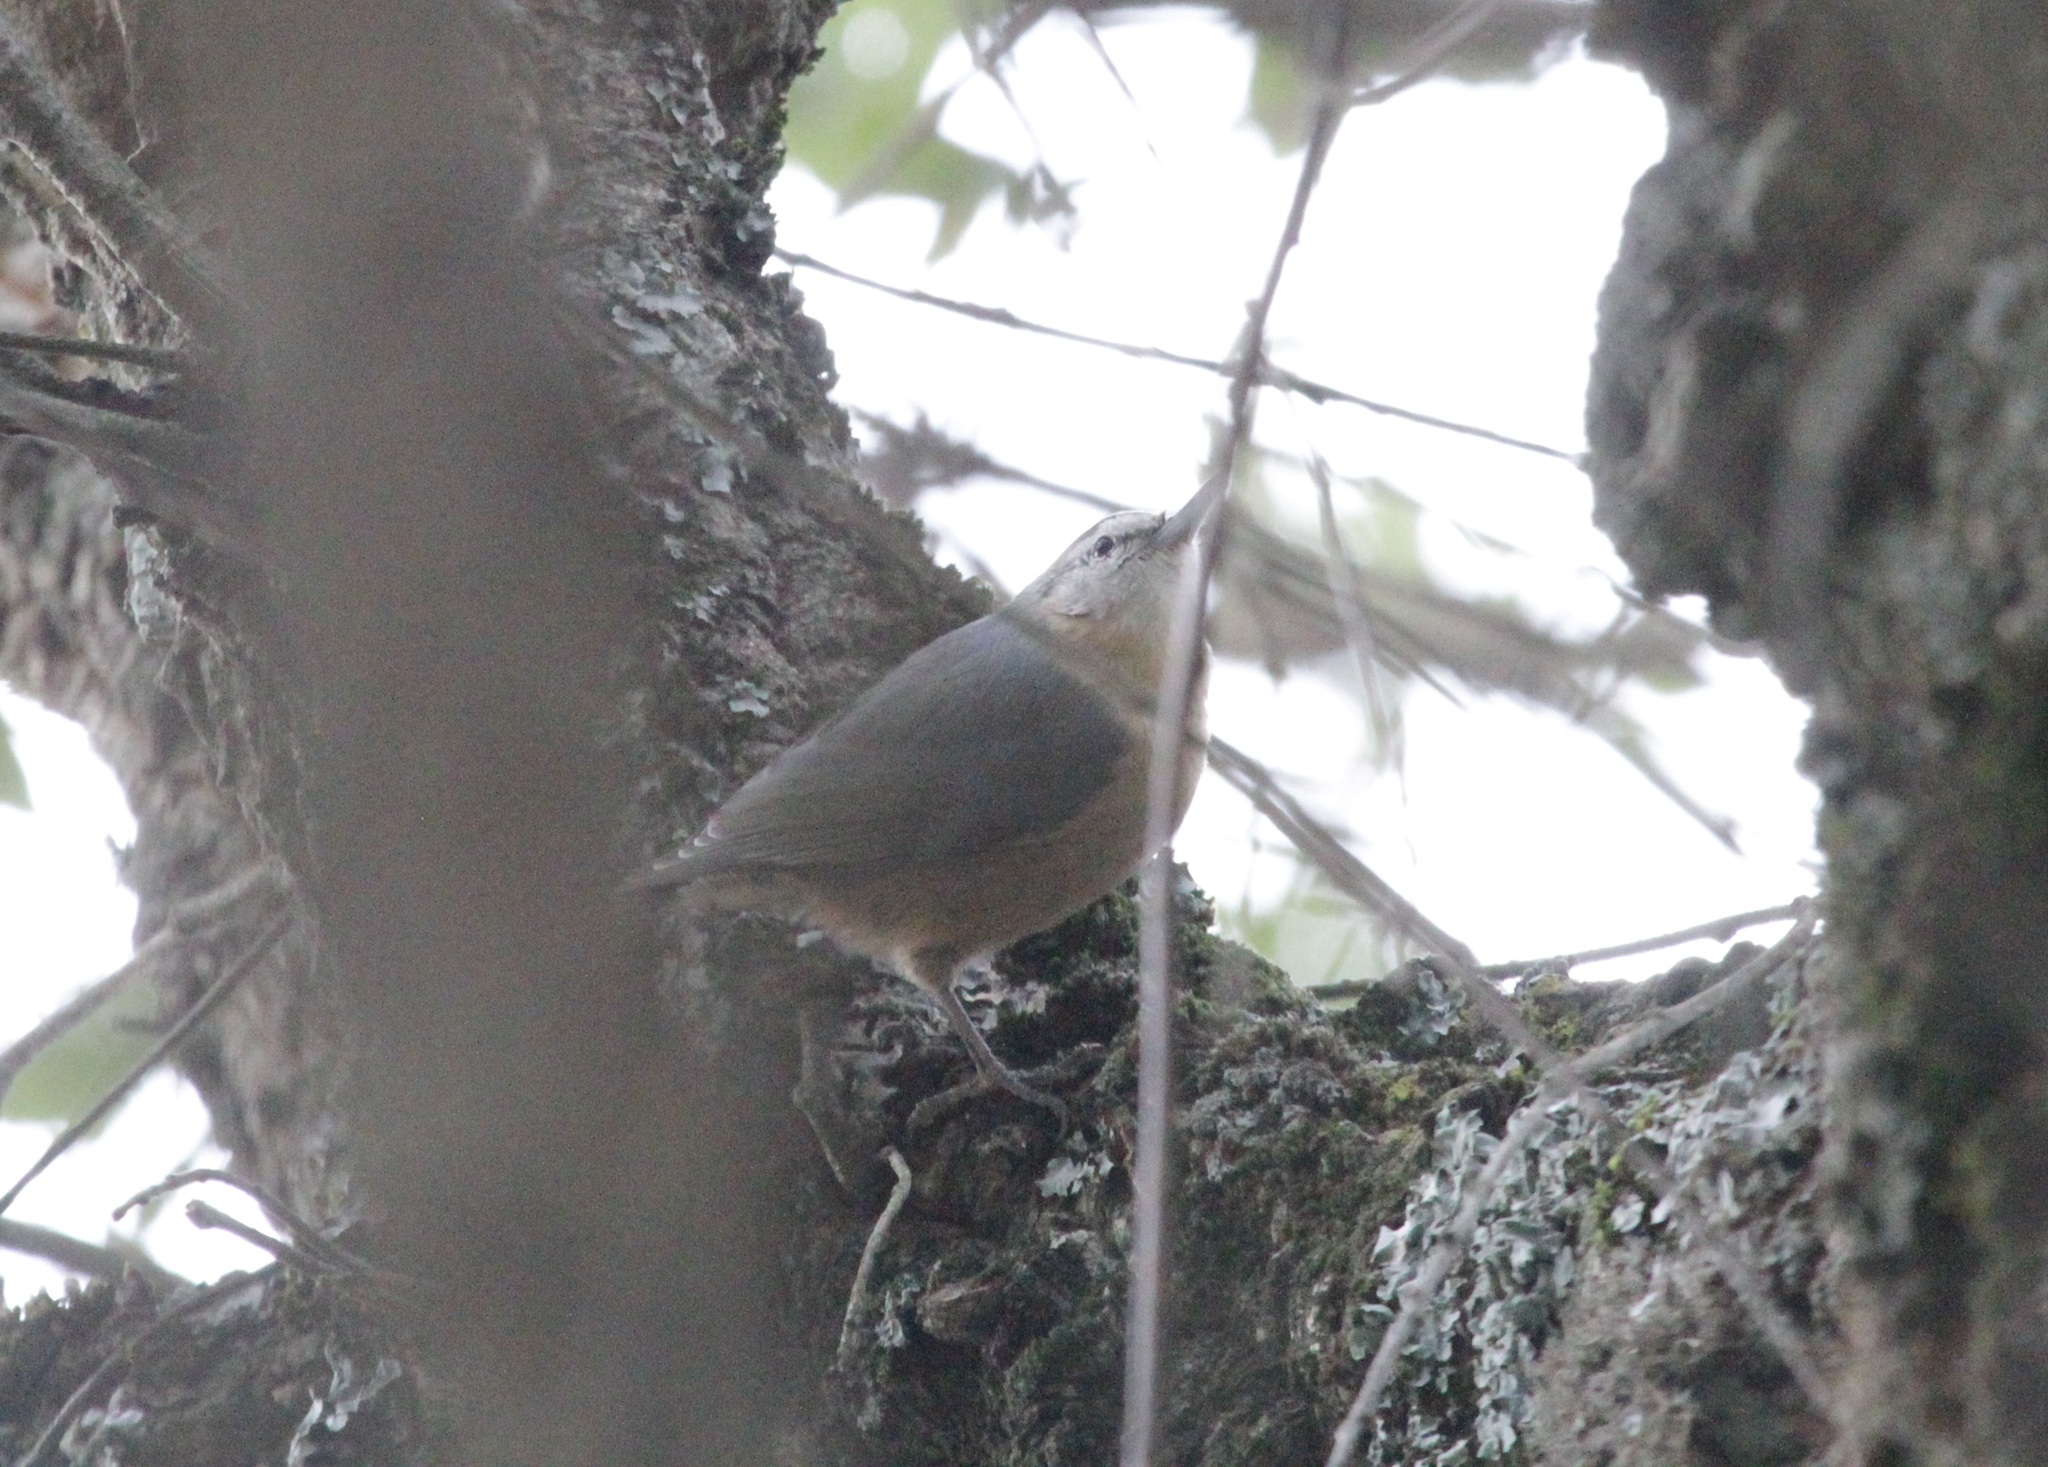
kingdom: Animalia
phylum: Chordata
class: Aves
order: Passeriformes
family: Sittidae
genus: Sitta
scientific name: Sitta ledanti
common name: Algerian nuthatch
